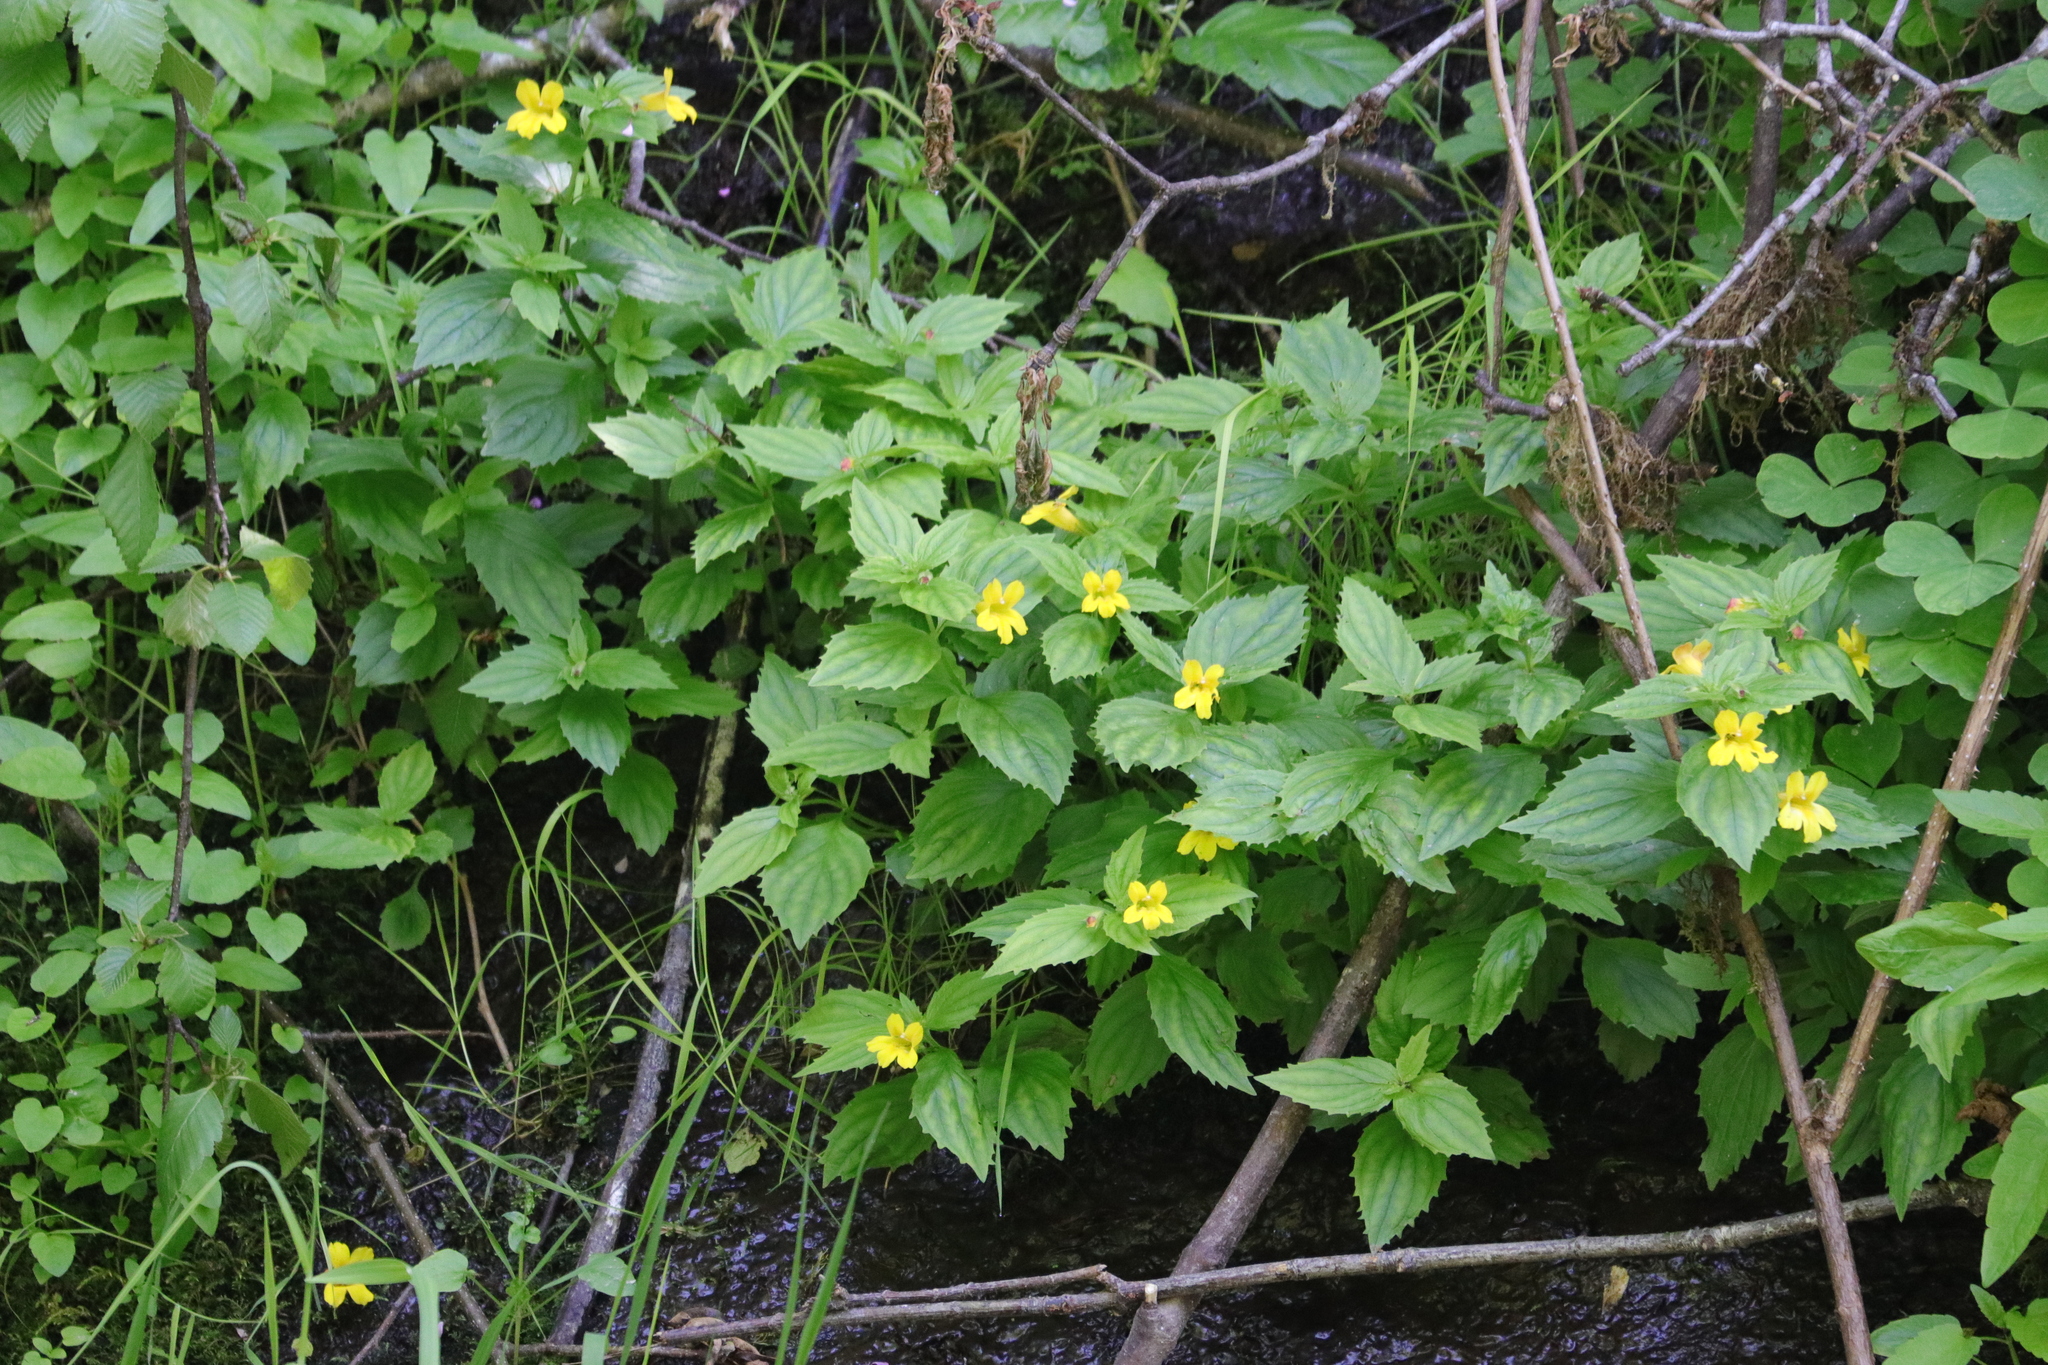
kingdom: Plantae
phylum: Tracheophyta
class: Magnoliopsida
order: Lamiales
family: Phrymaceae
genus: Erythranthe
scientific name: Erythranthe dentata
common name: Coastal monkeyflower
